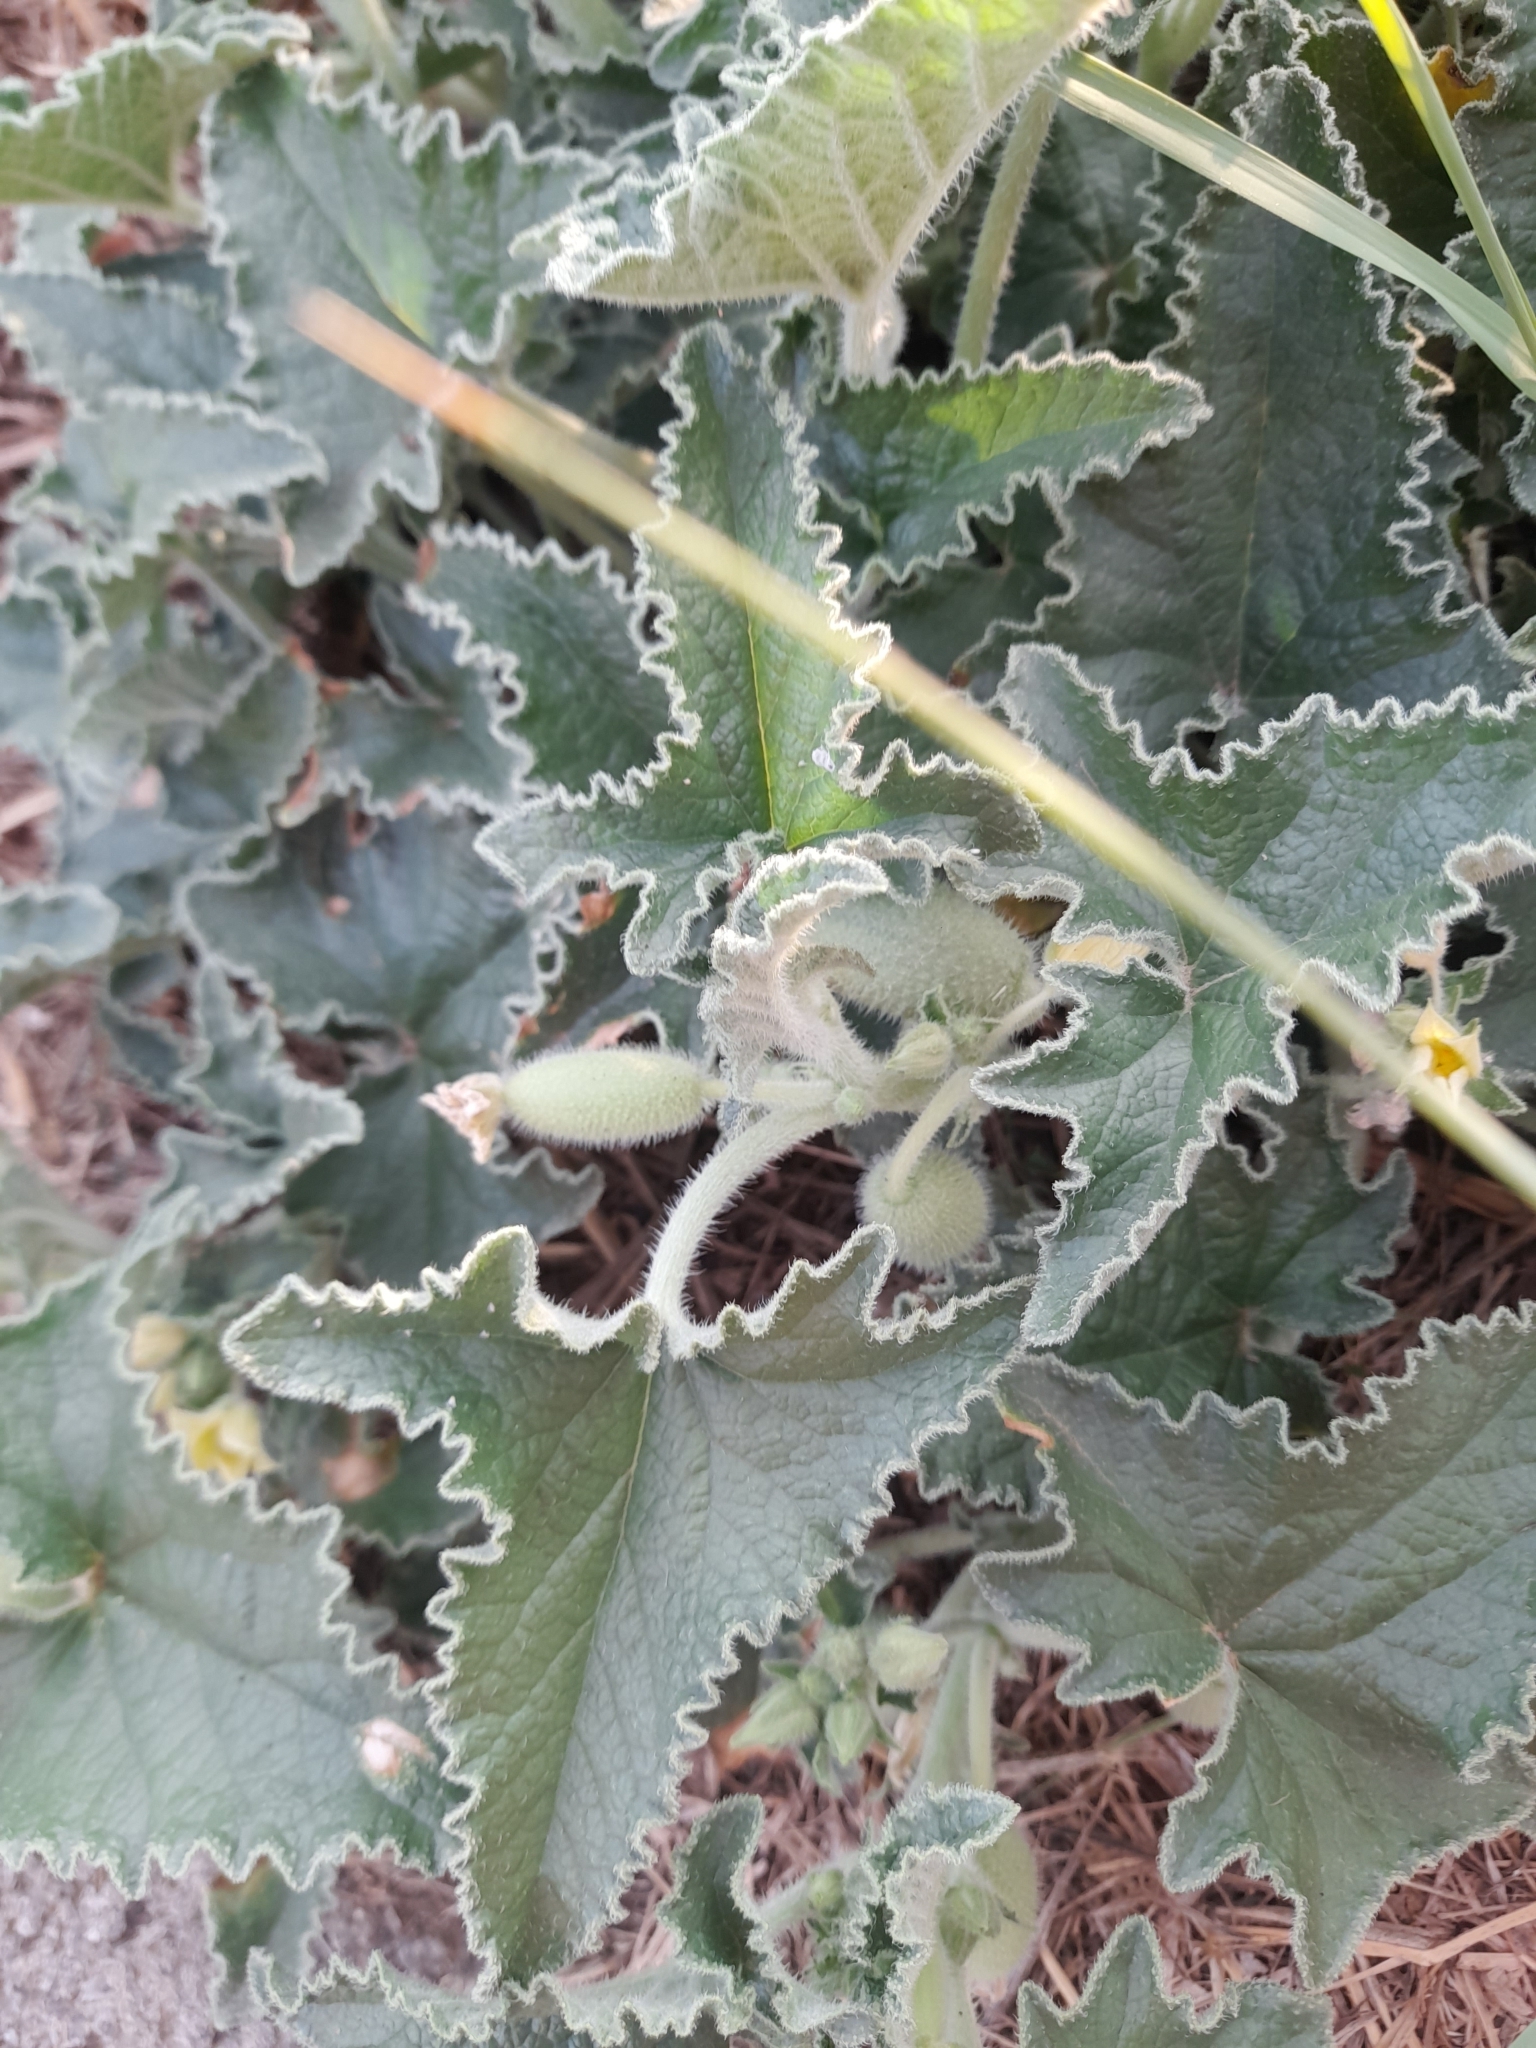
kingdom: Plantae
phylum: Tracheophyta
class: Magnoliopsida
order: Cucurbitales
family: Cucurbitaceae
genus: Ecballium
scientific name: Ecballium elaterium
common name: Squirting cucumber
